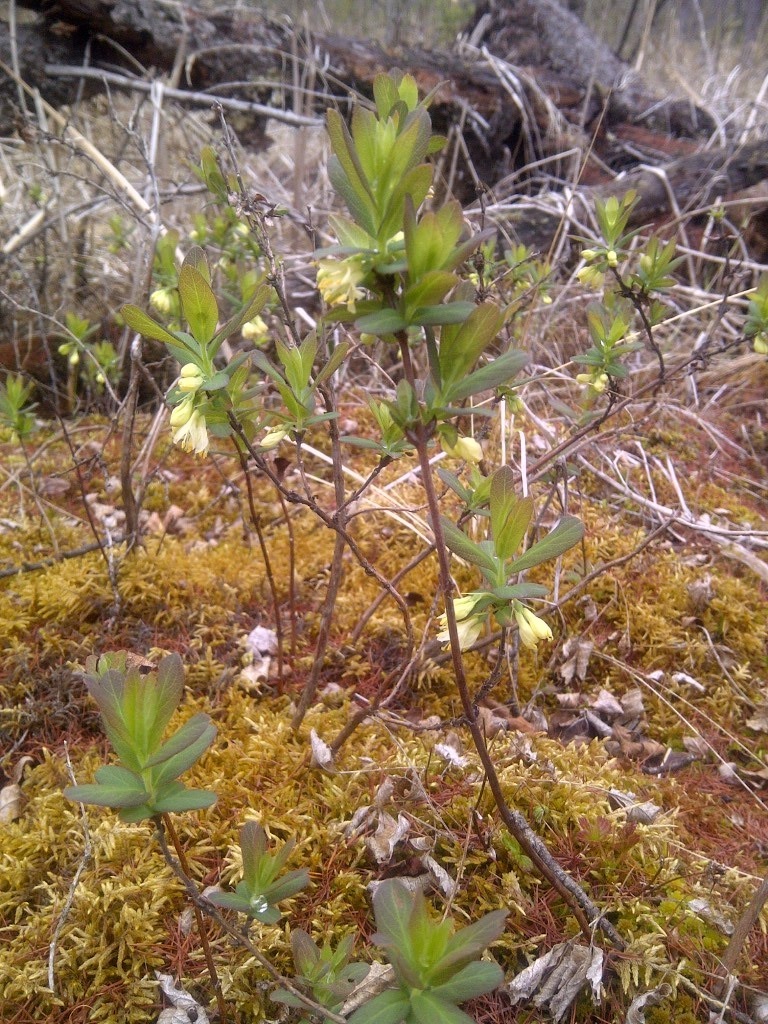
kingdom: Plantae
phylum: Tracheophyta
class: Magnoliopsida
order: Dipsacales
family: Caprifoliaceae
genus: Lonicera
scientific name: Lonicera villosa
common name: Mountain fly-honeysuckle
